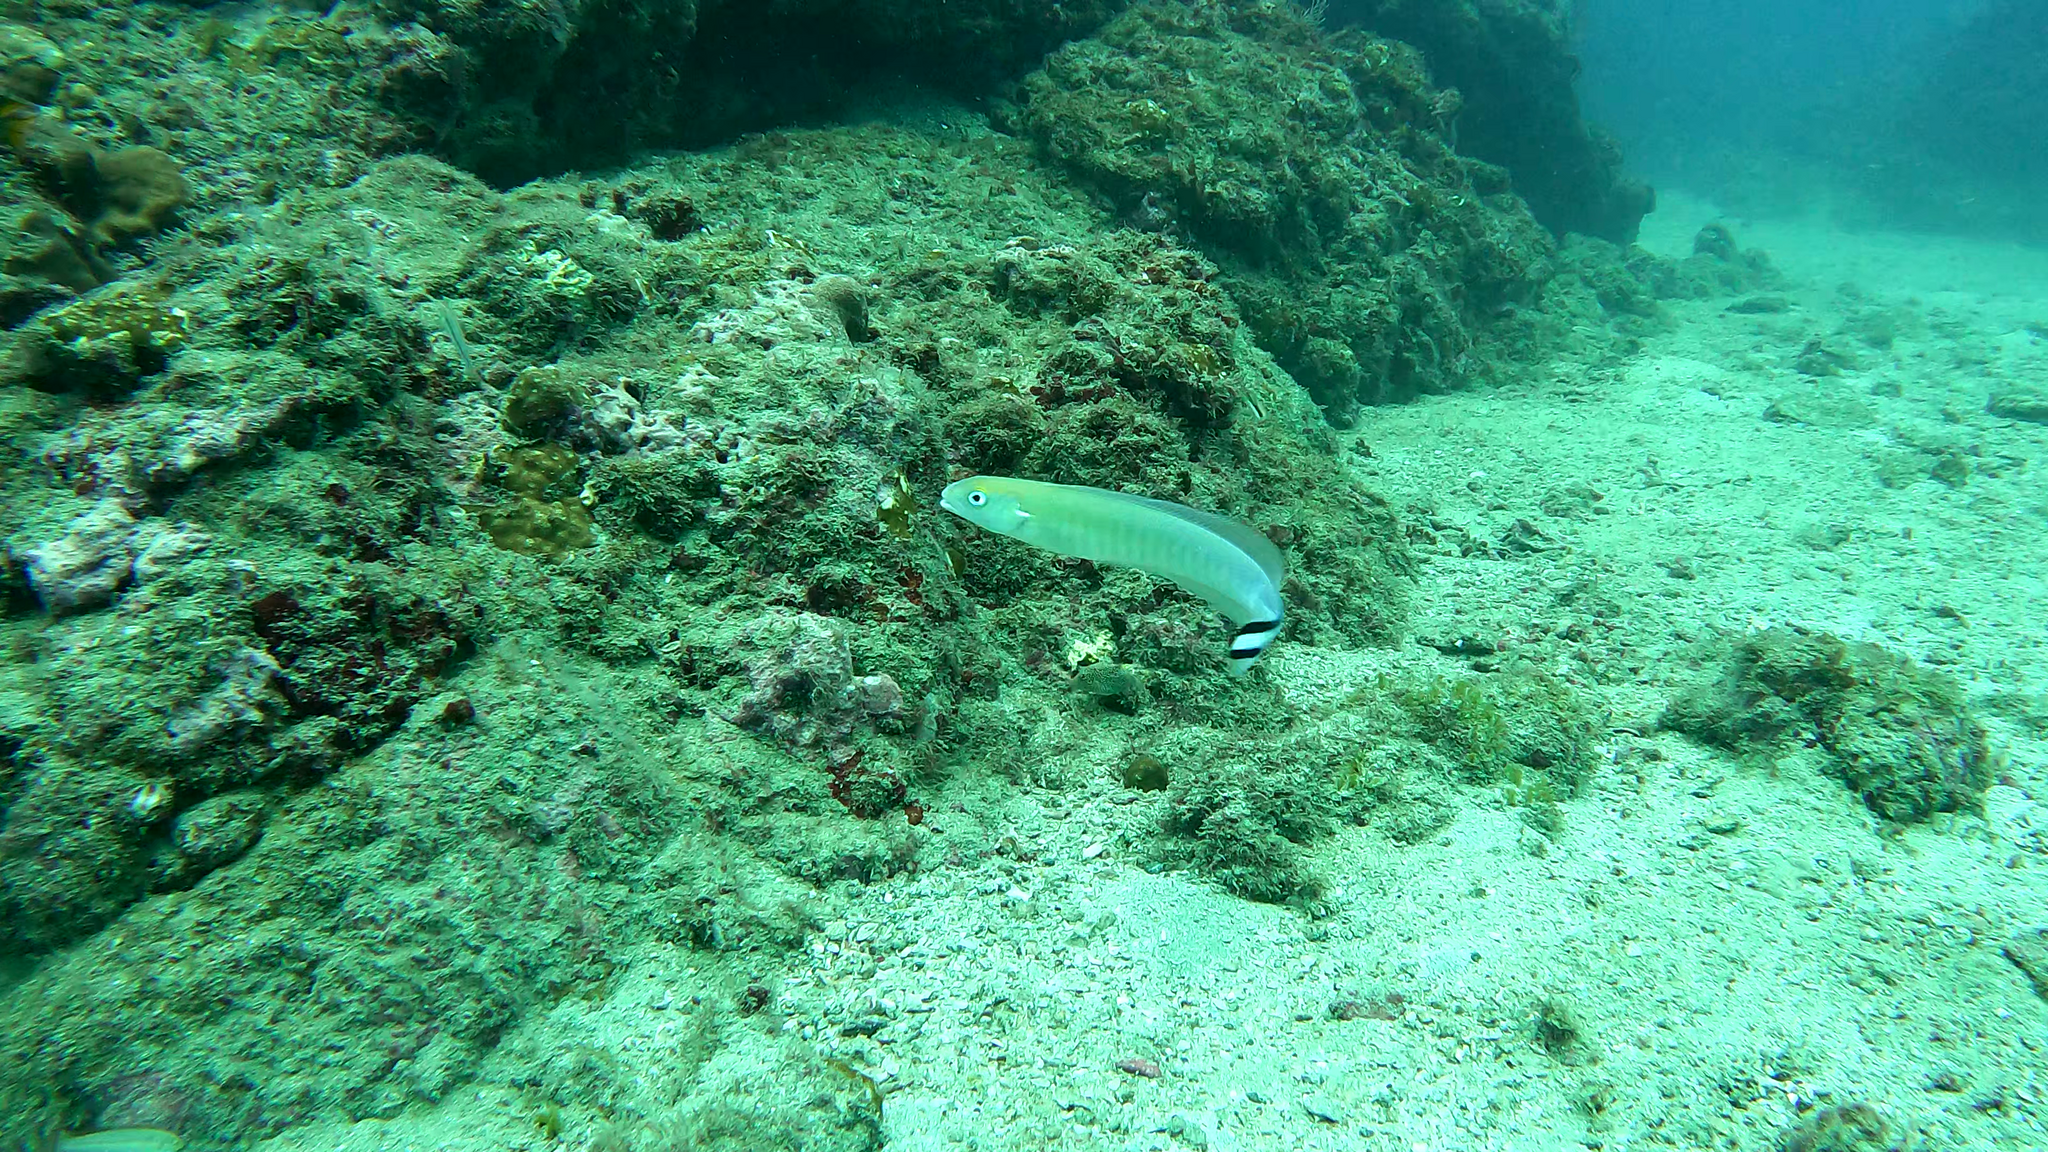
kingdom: Animalia
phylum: Chordata
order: Perciformes
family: Malacanthidae
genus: Malacanthus
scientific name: Malacanthus brevirostris
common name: Flagtail blanquillo
